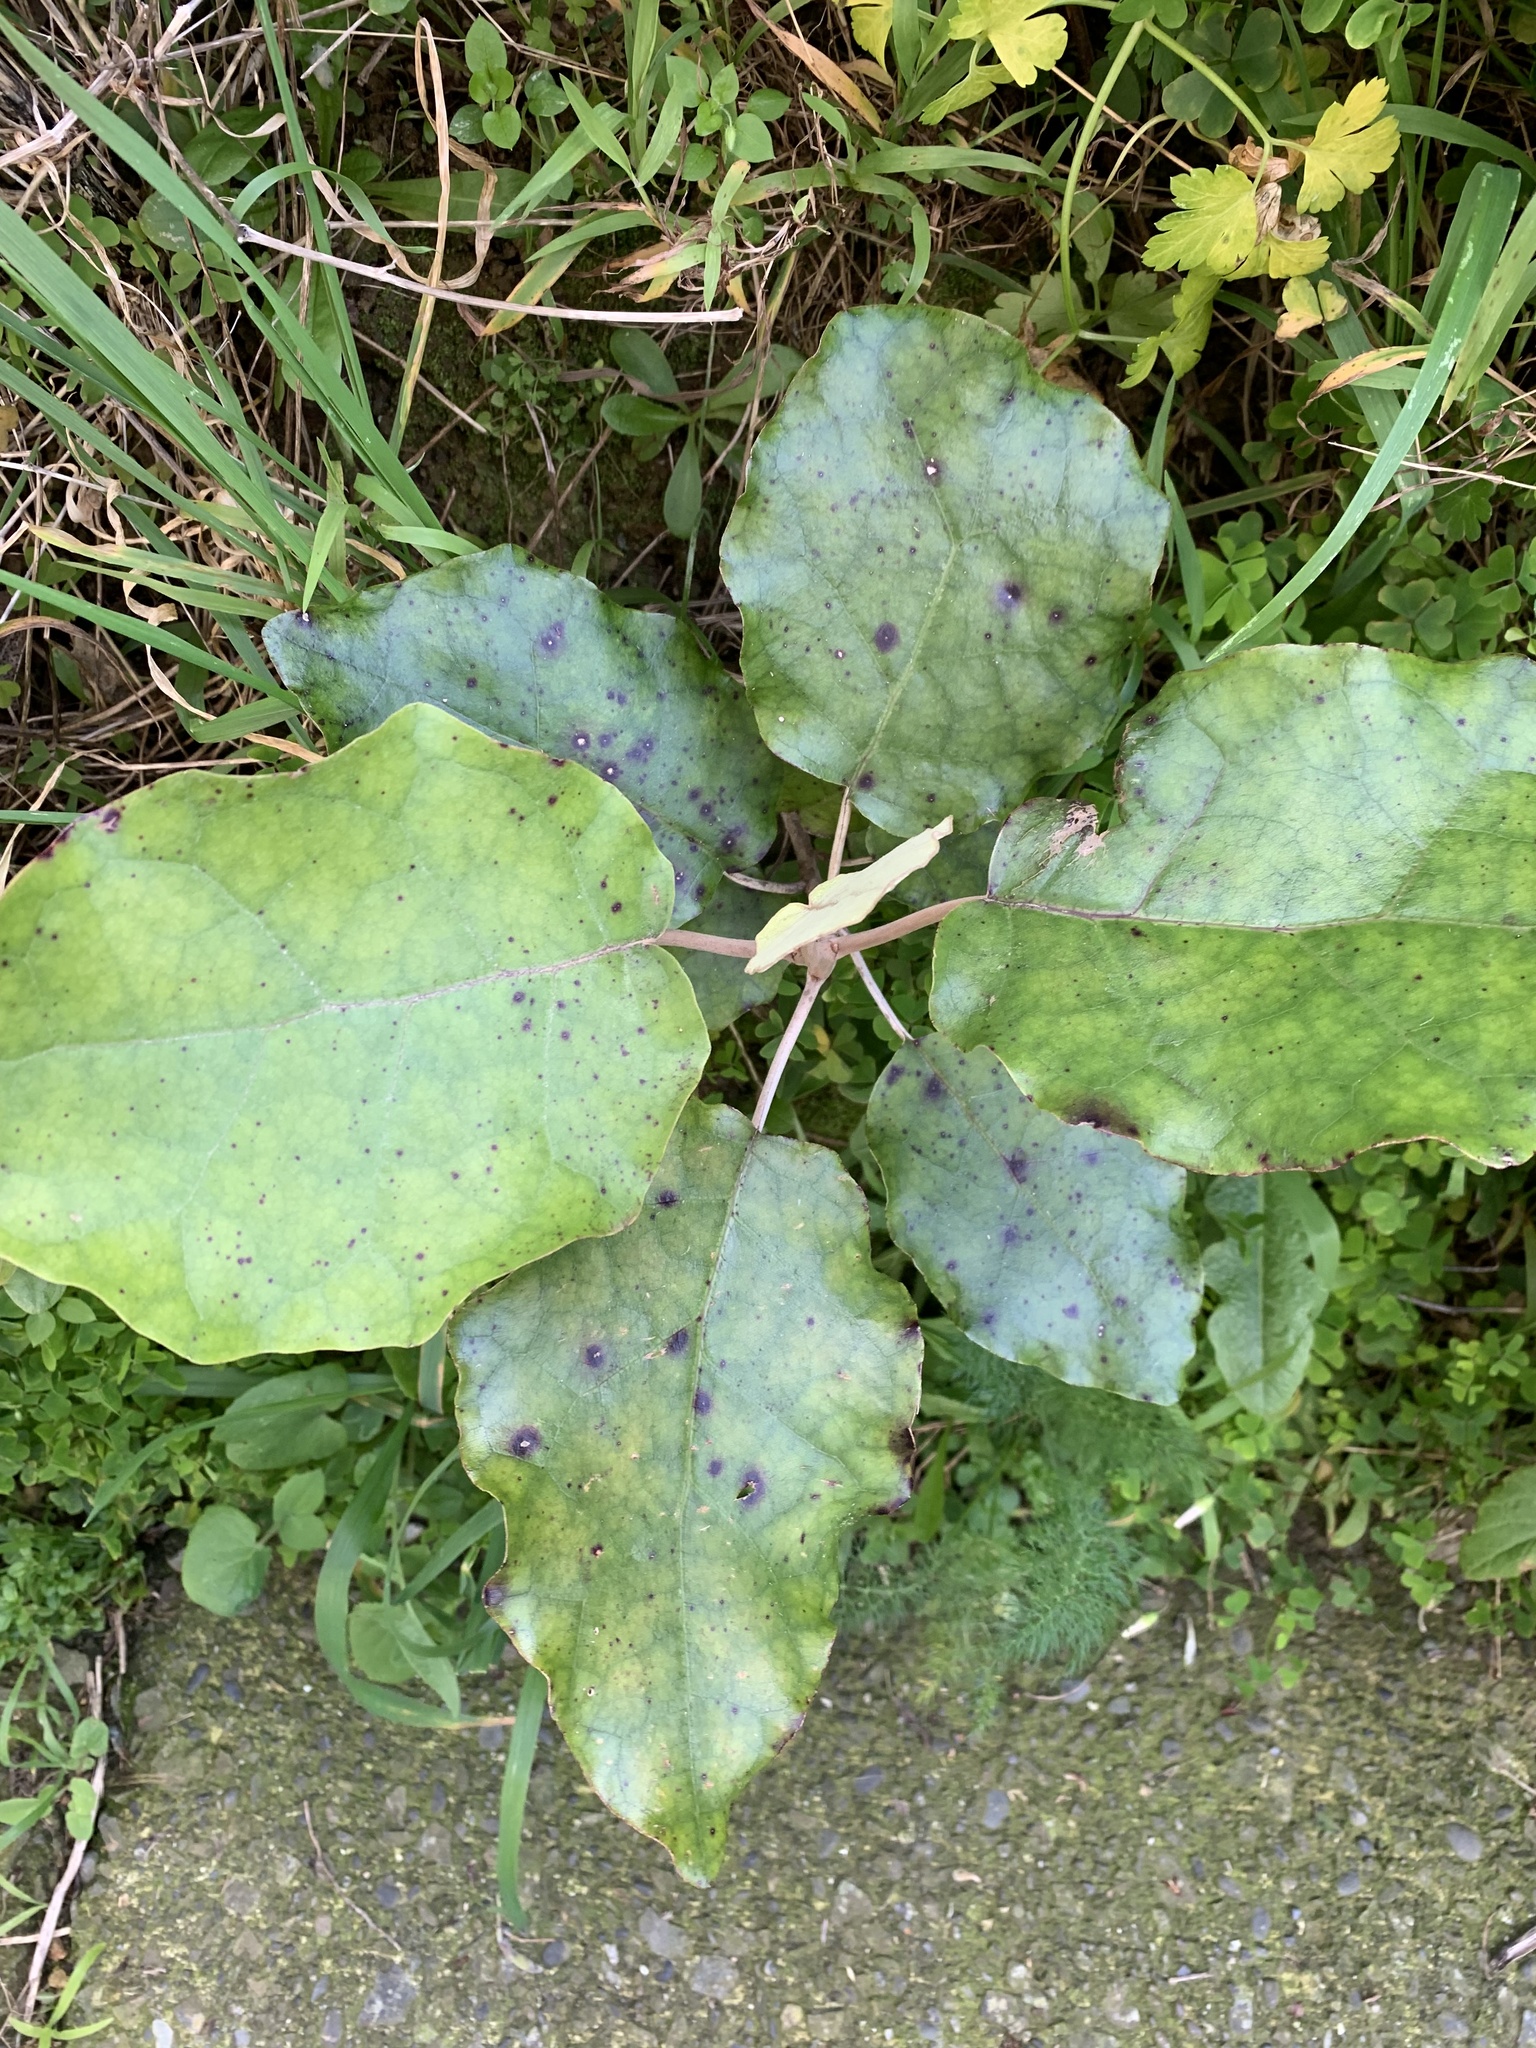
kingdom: Plantae
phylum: Tracheophyta
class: Magnoliopsida
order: Asterales
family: Asteraceae
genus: Brachyglottis
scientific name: Brachyglottis repanda
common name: Hedge ragwort
